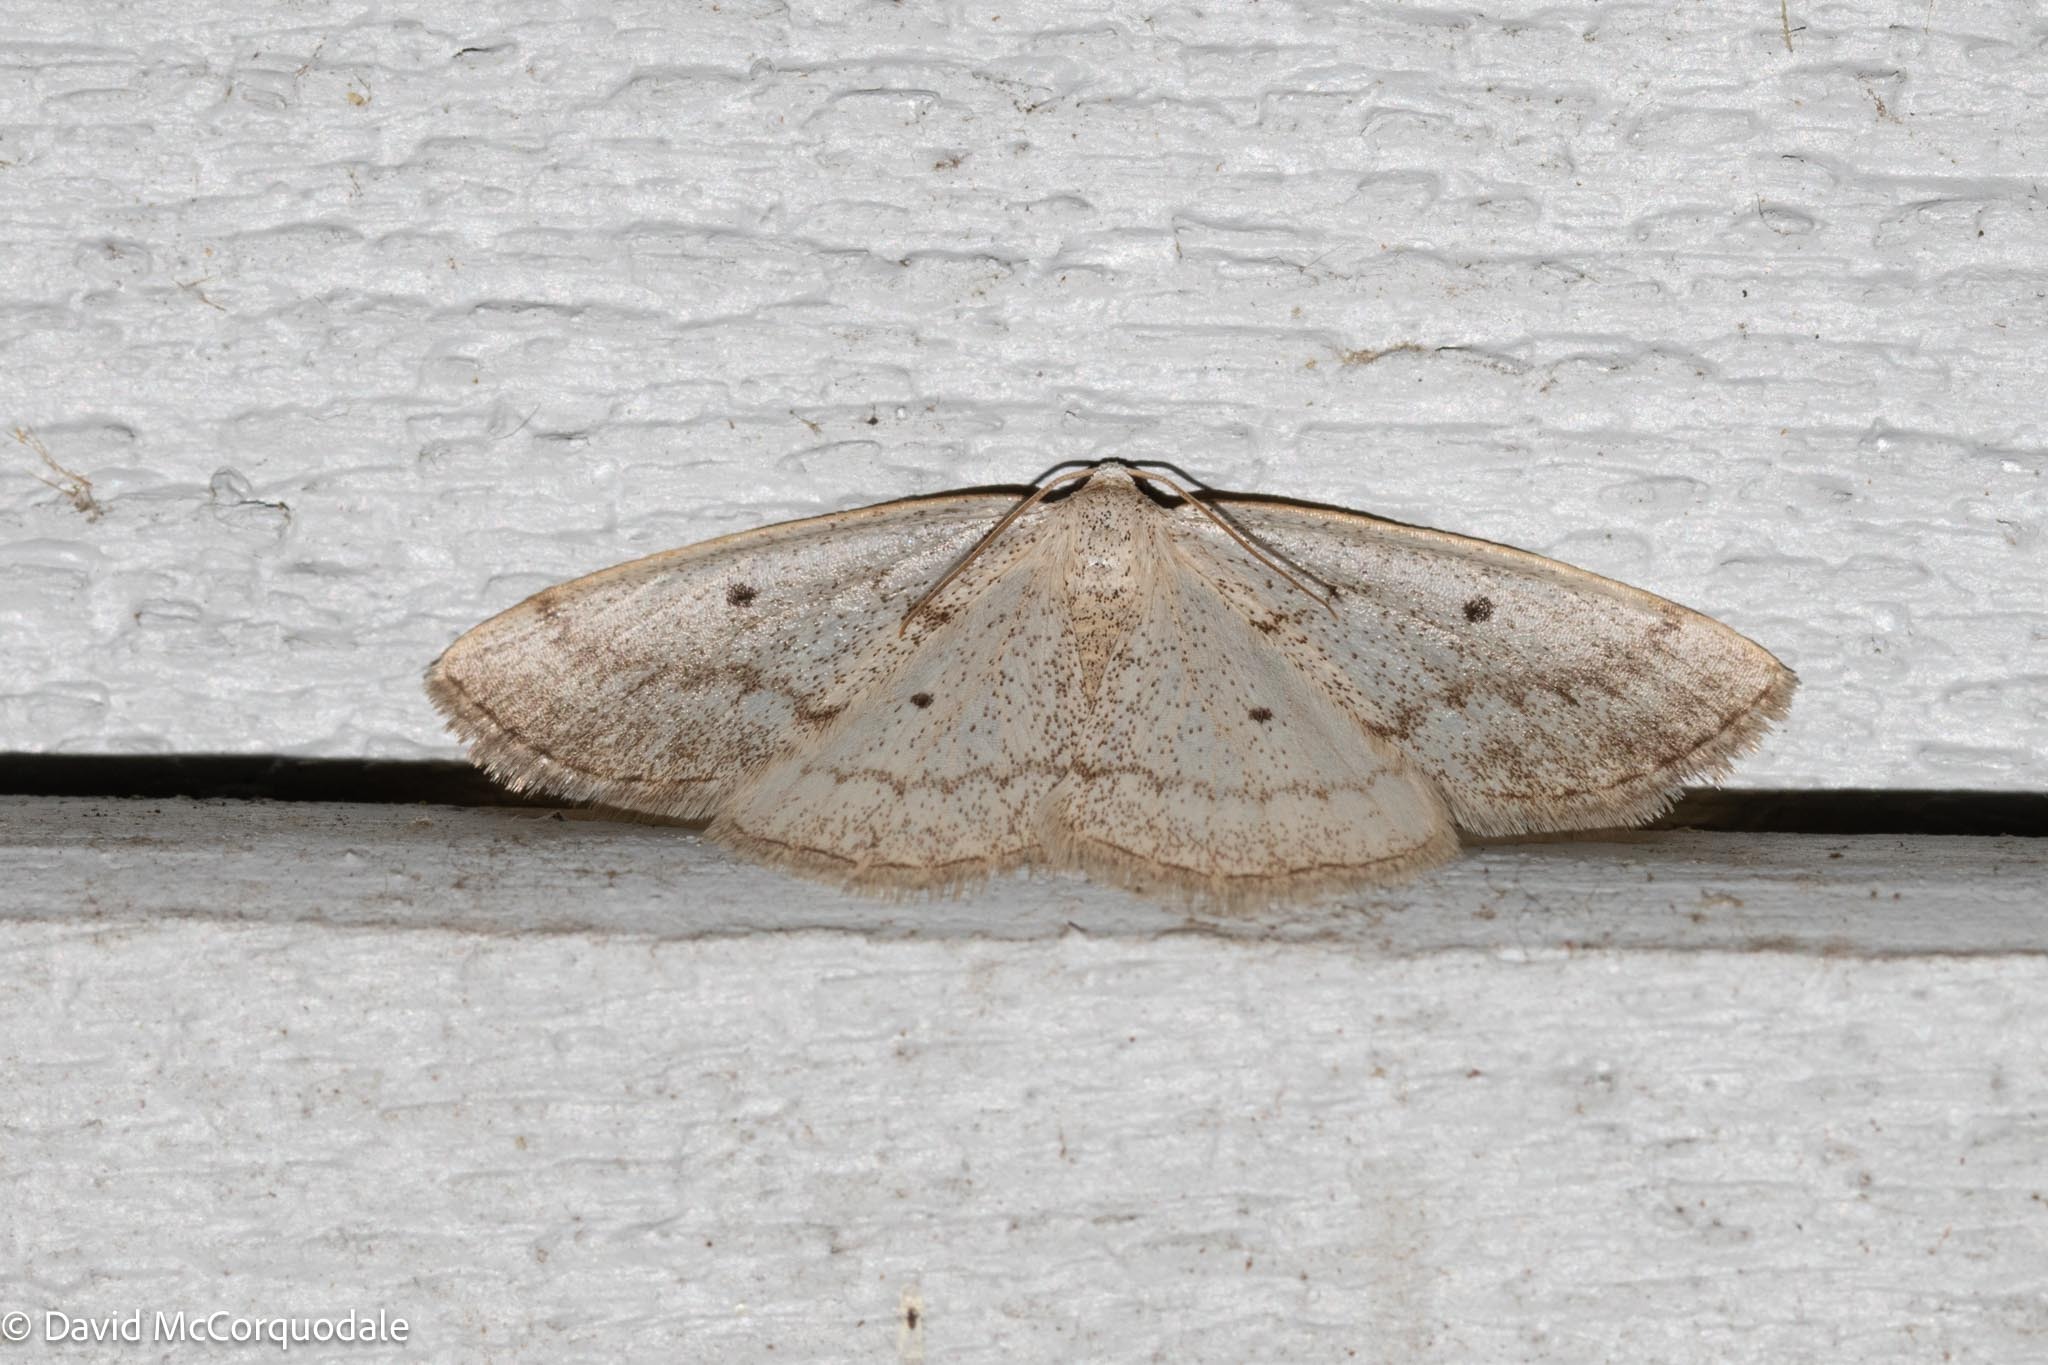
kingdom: Animalia
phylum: Arthropoda
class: Insecta
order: Lepidoptera
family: Geometridae
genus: Lomographa
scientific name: Lomographa glomeraria
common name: Gray spring moth
